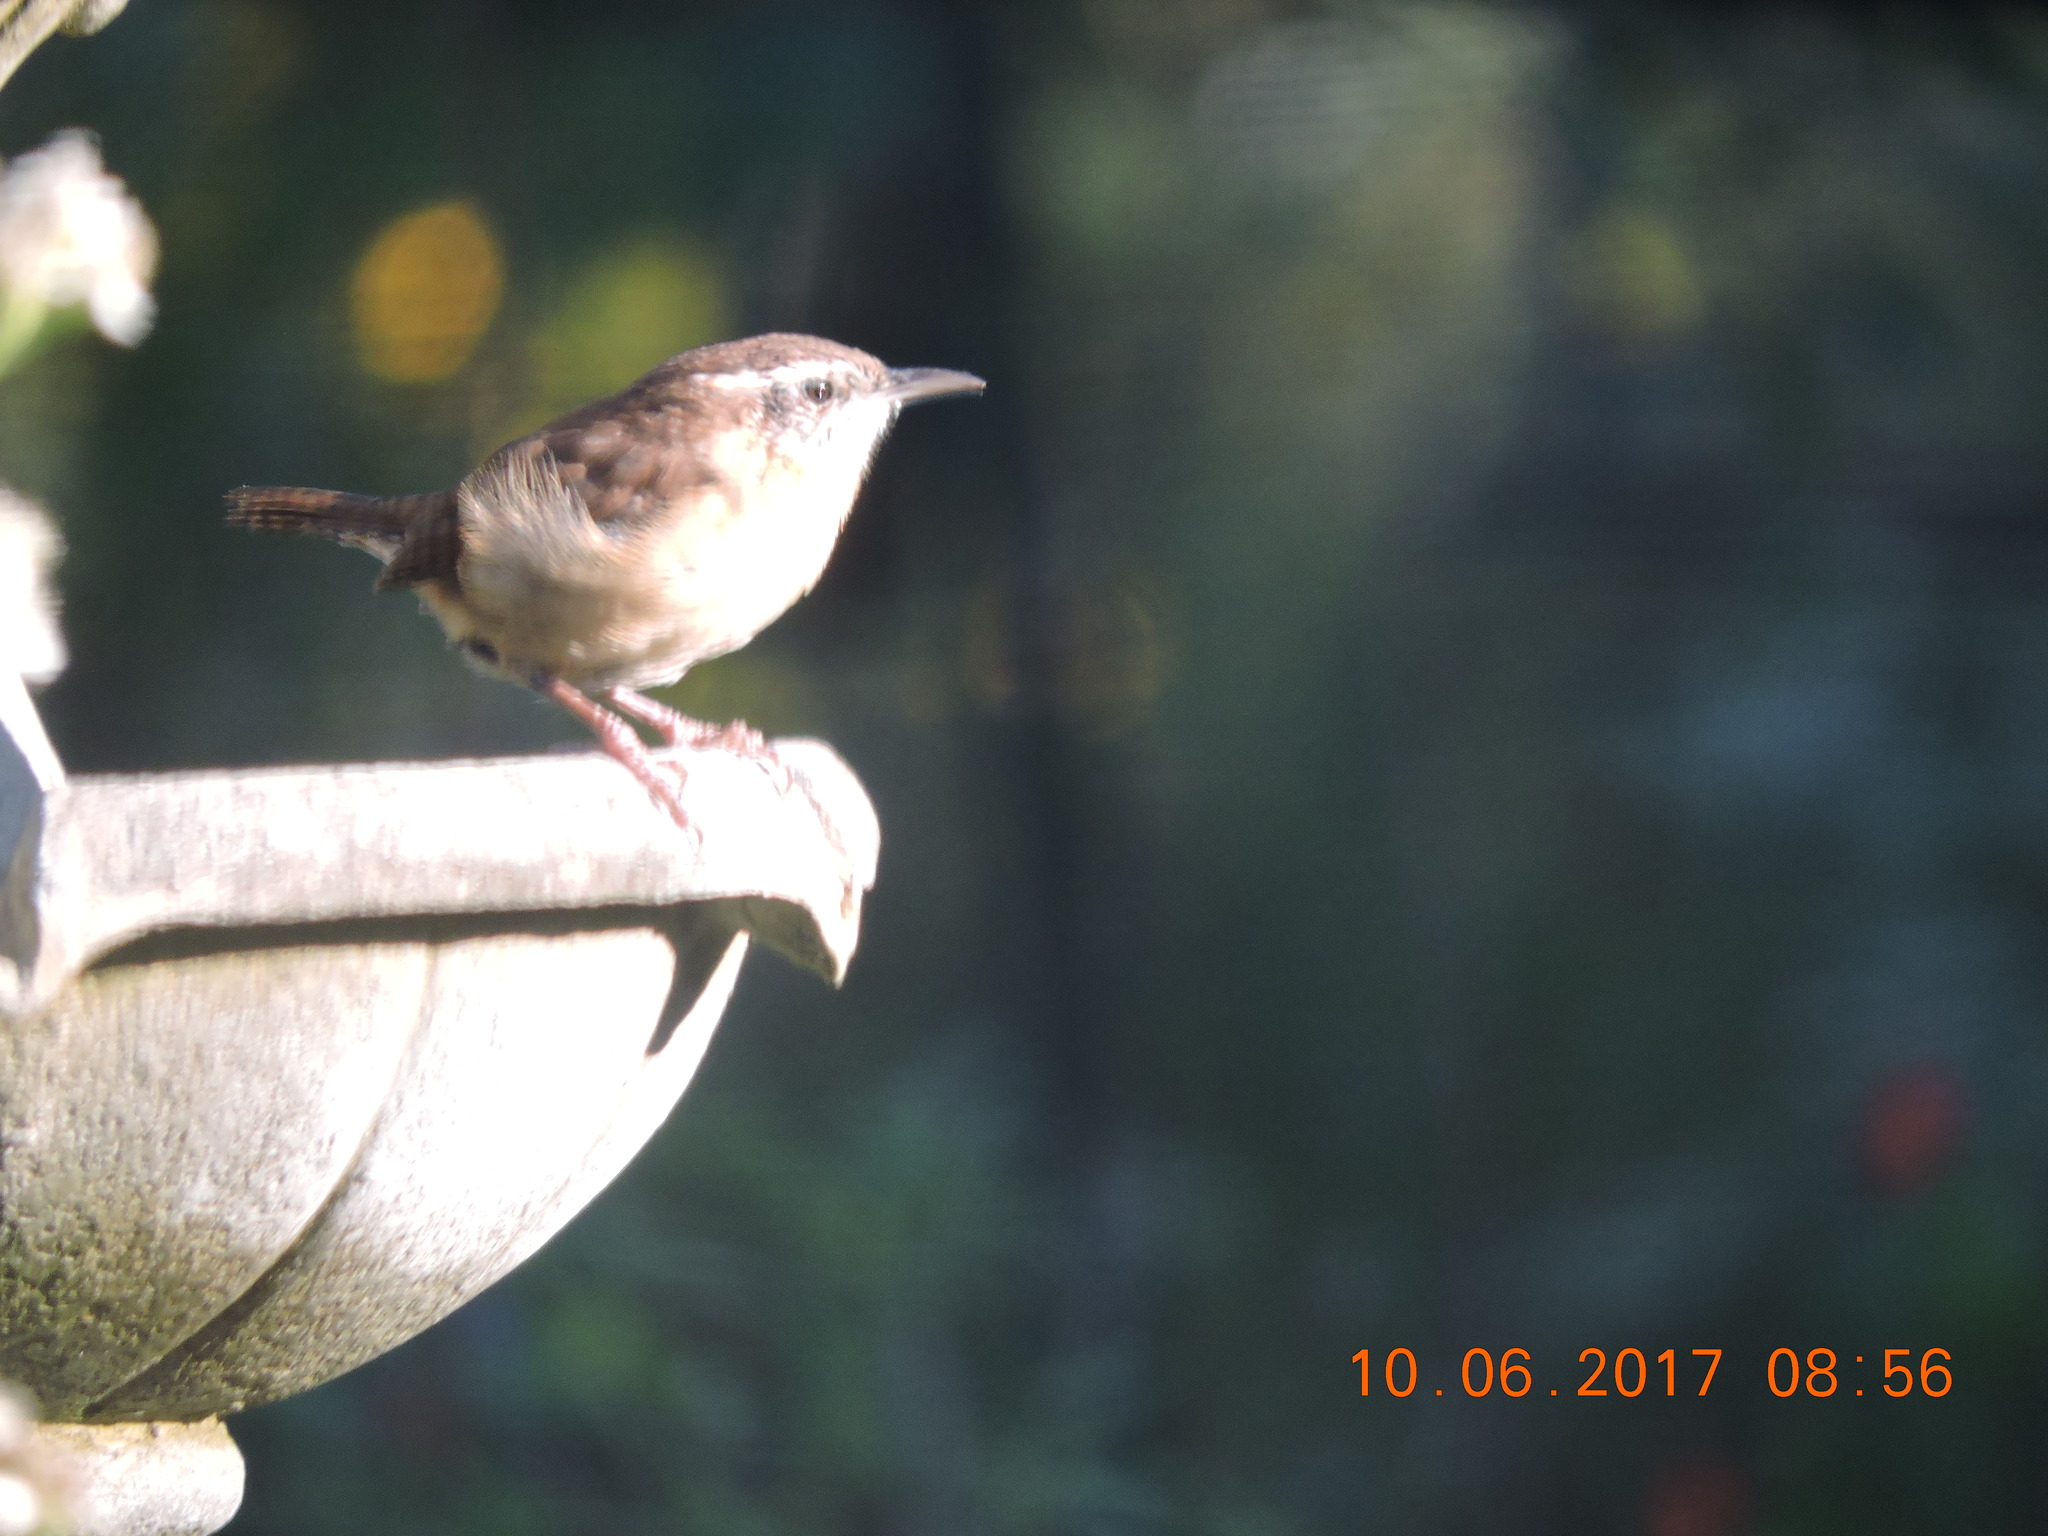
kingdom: Animalia
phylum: Chordata
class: Aves
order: Passeriformes
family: Troglodytidae
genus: Thryothorus
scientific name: Thryothorus ludovicianus
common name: Carolina wren
